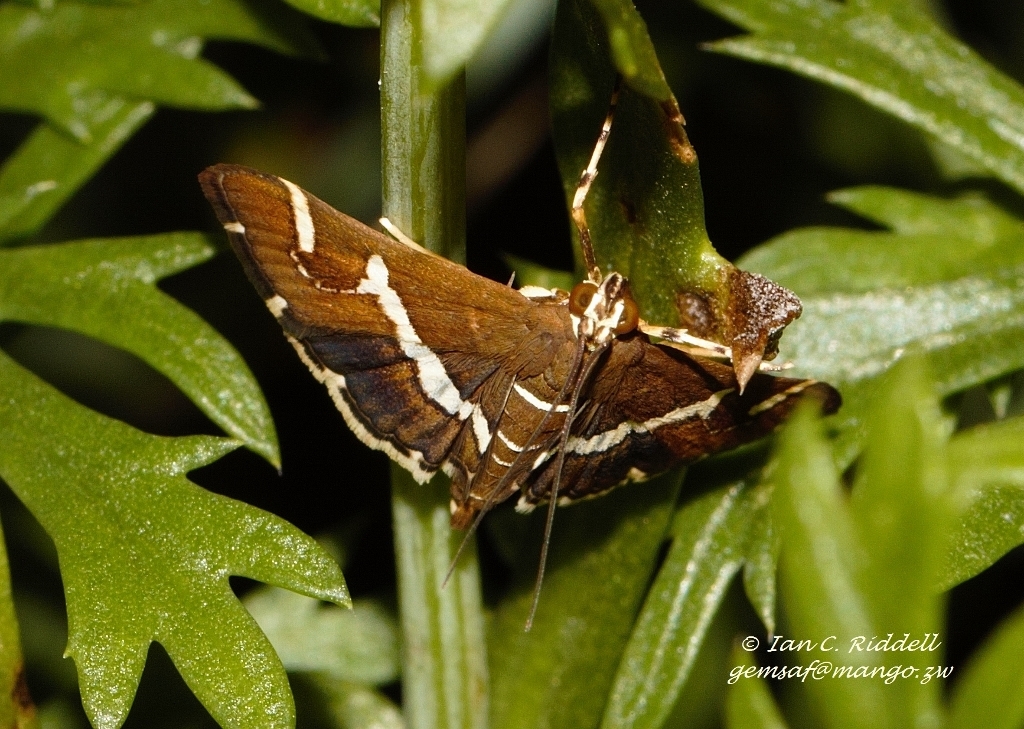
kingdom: Animalia
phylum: Arthropoda
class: Insecta
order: Lepidoptera
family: Crambidae
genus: Spoladea
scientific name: Spoladea recurvalis
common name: Beet webworm moth
